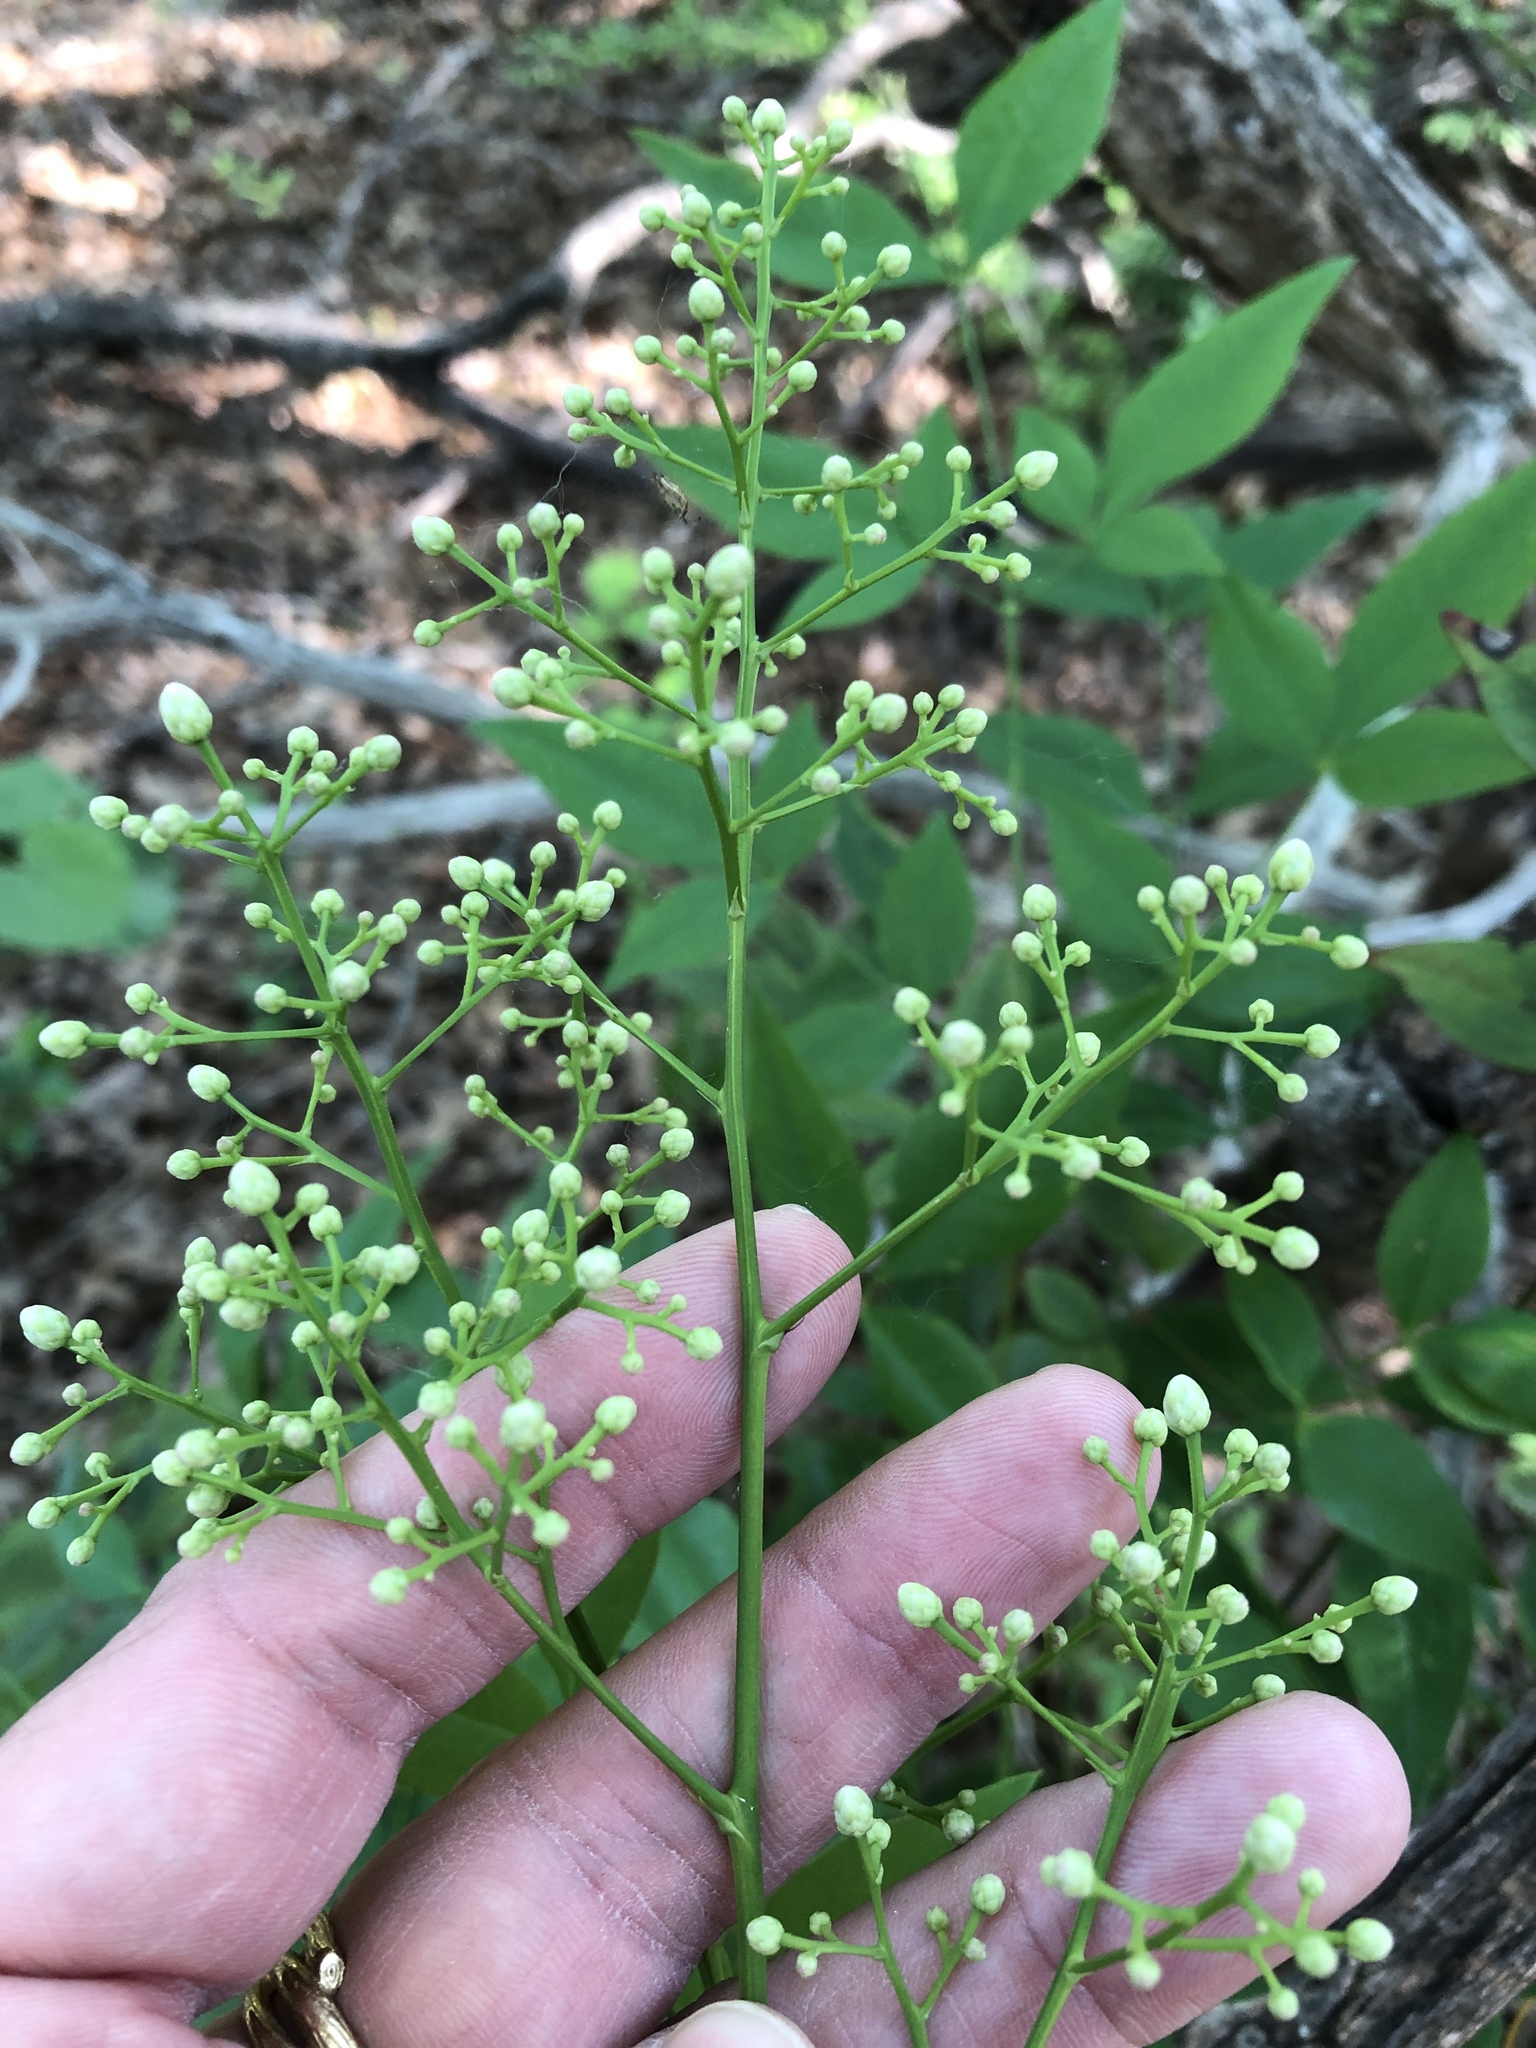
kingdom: Plantae
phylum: Tracheophyta
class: Magnoliopsida
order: Ranunculales
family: Berberidaceae
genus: Nandina
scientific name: Nandina domestica
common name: Sacred bamboo
